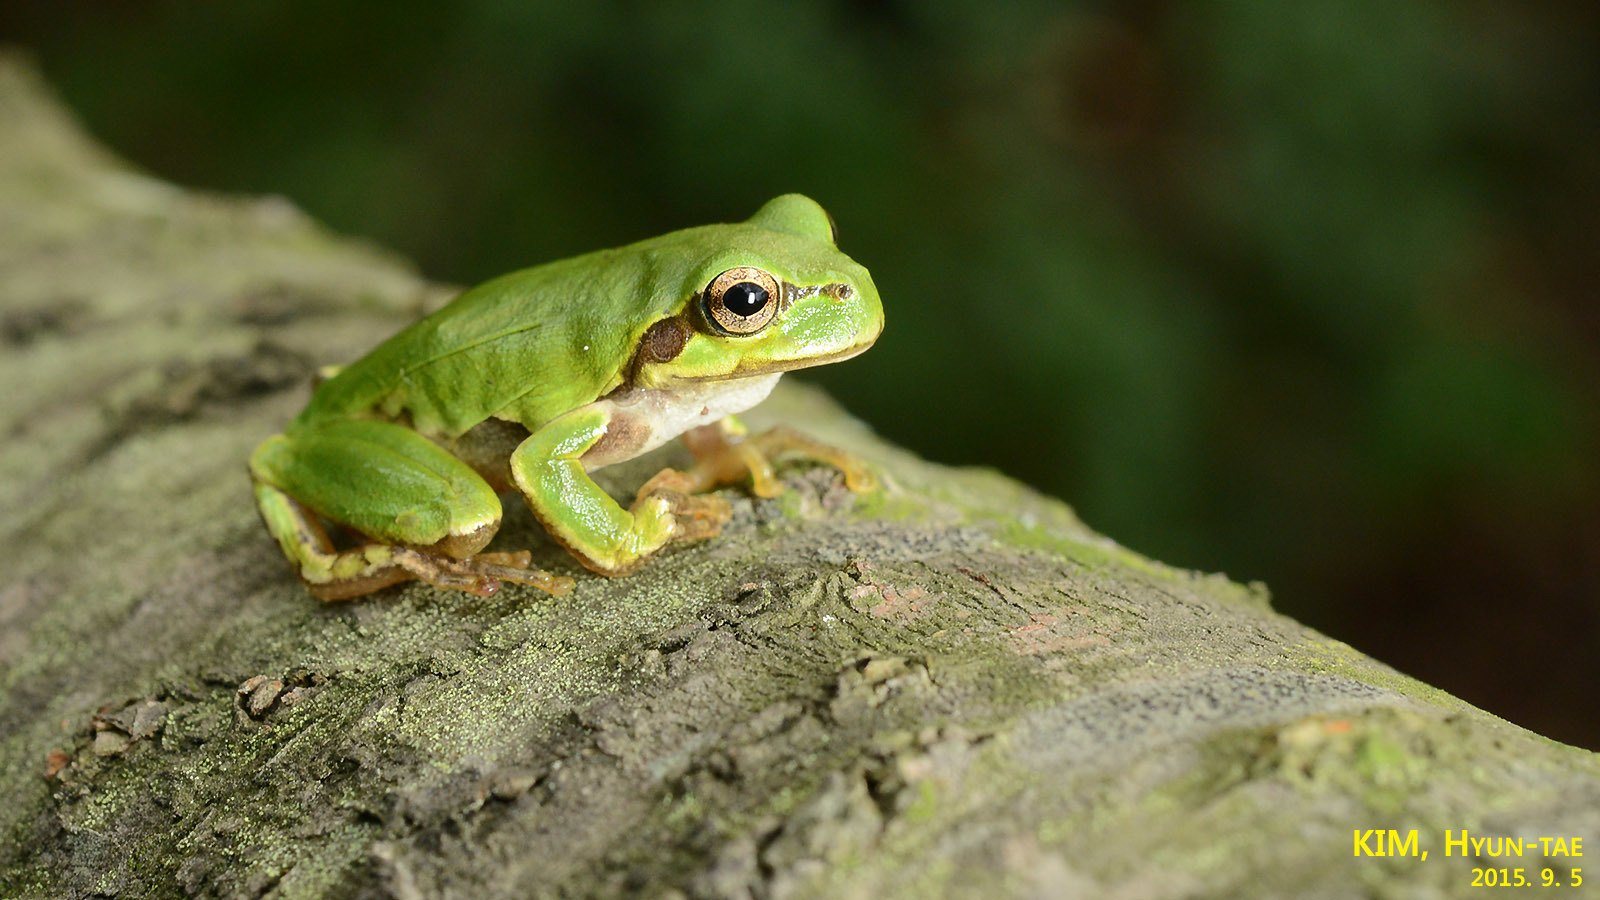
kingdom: Animalia
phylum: Chordata
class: Amphibia
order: Anura
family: Hylidae
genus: Dryophytes
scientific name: Dryophytes japonicus
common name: Japanese treefrog
